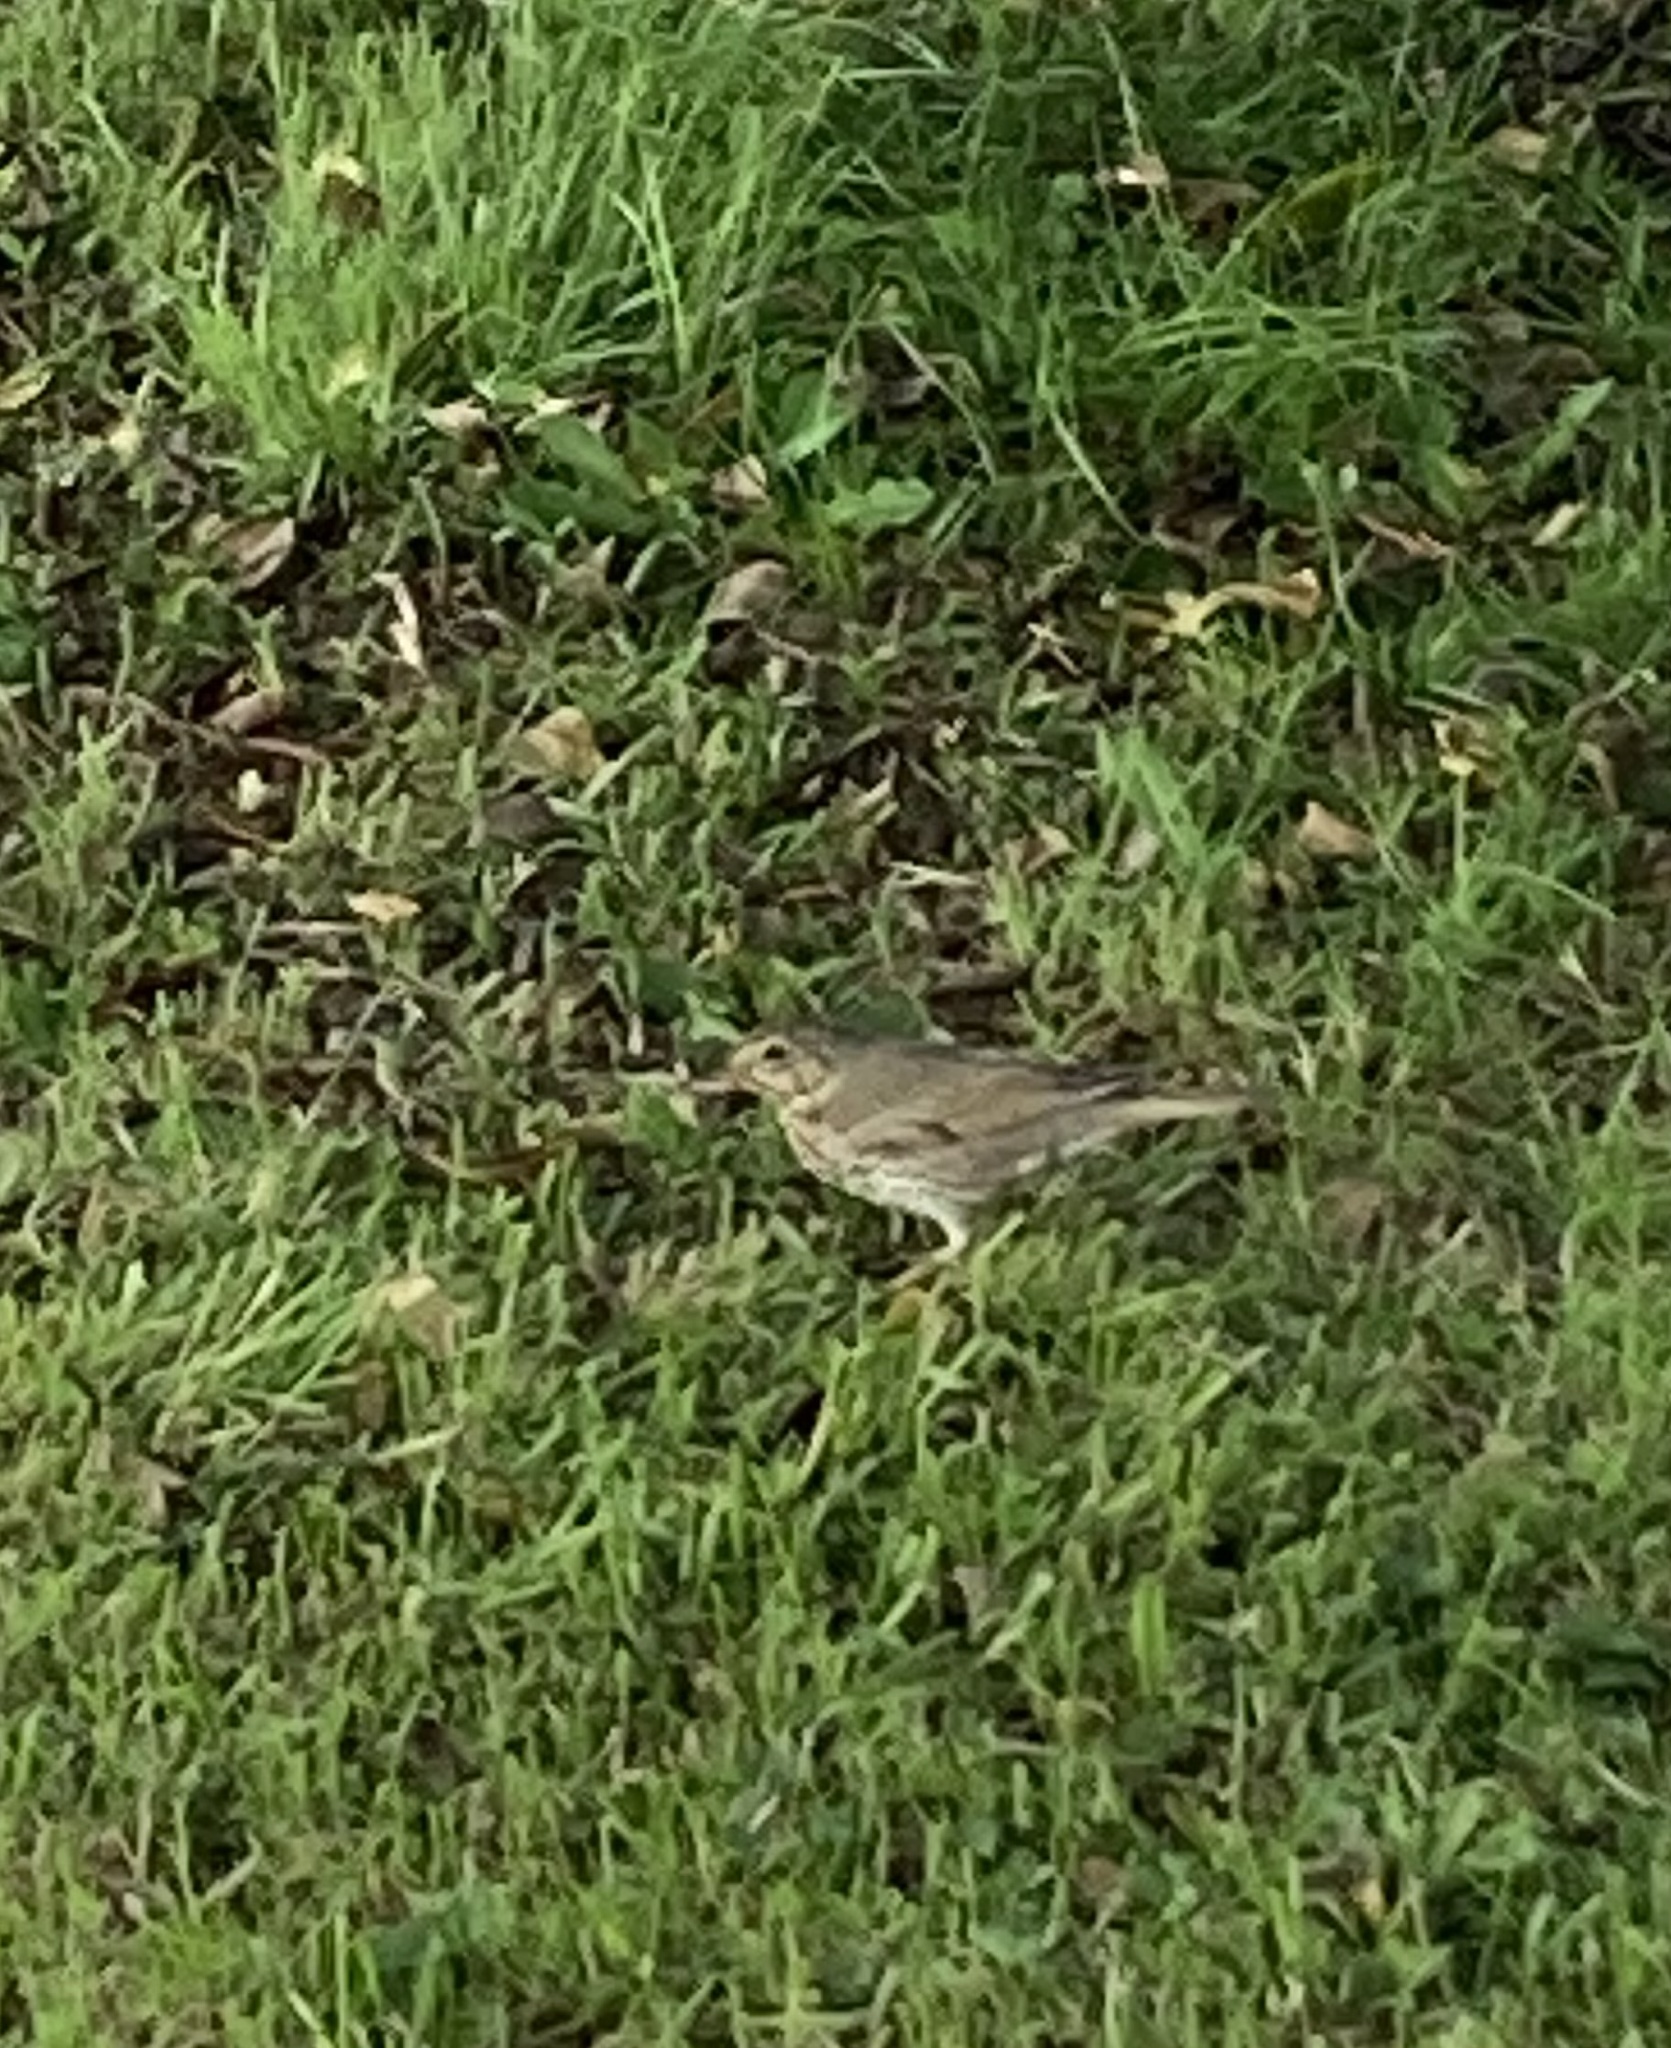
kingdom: Animalia
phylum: Chordata
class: Aves
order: Passeriformes
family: Turdidae
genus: Turdus
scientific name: Turdus philomelos
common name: Song thrush
